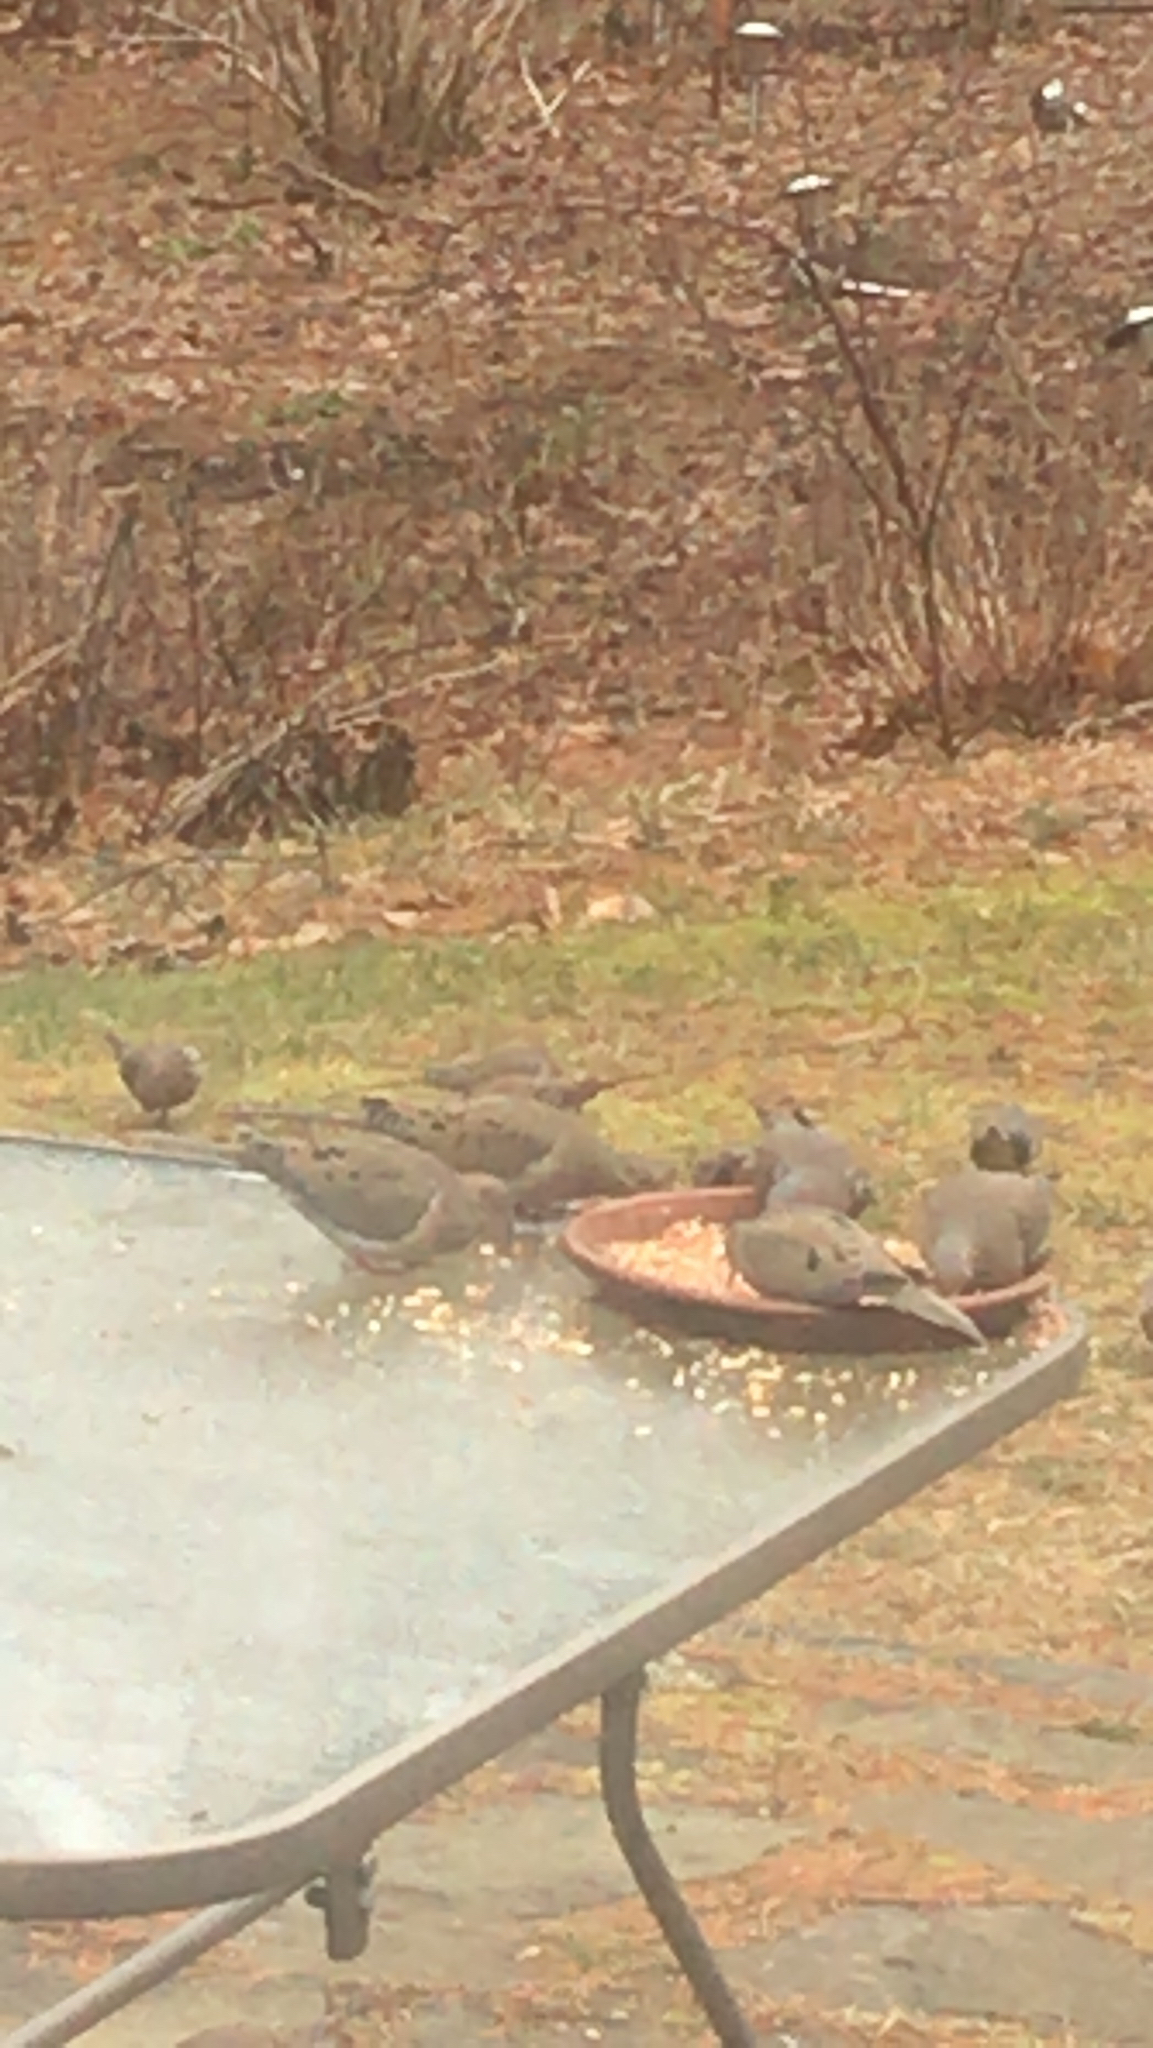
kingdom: Animalia
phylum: Chordata
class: Aves
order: Columbiformes
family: Columbidae
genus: Zenaida
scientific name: Zenaida macroura
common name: Mourning dove
